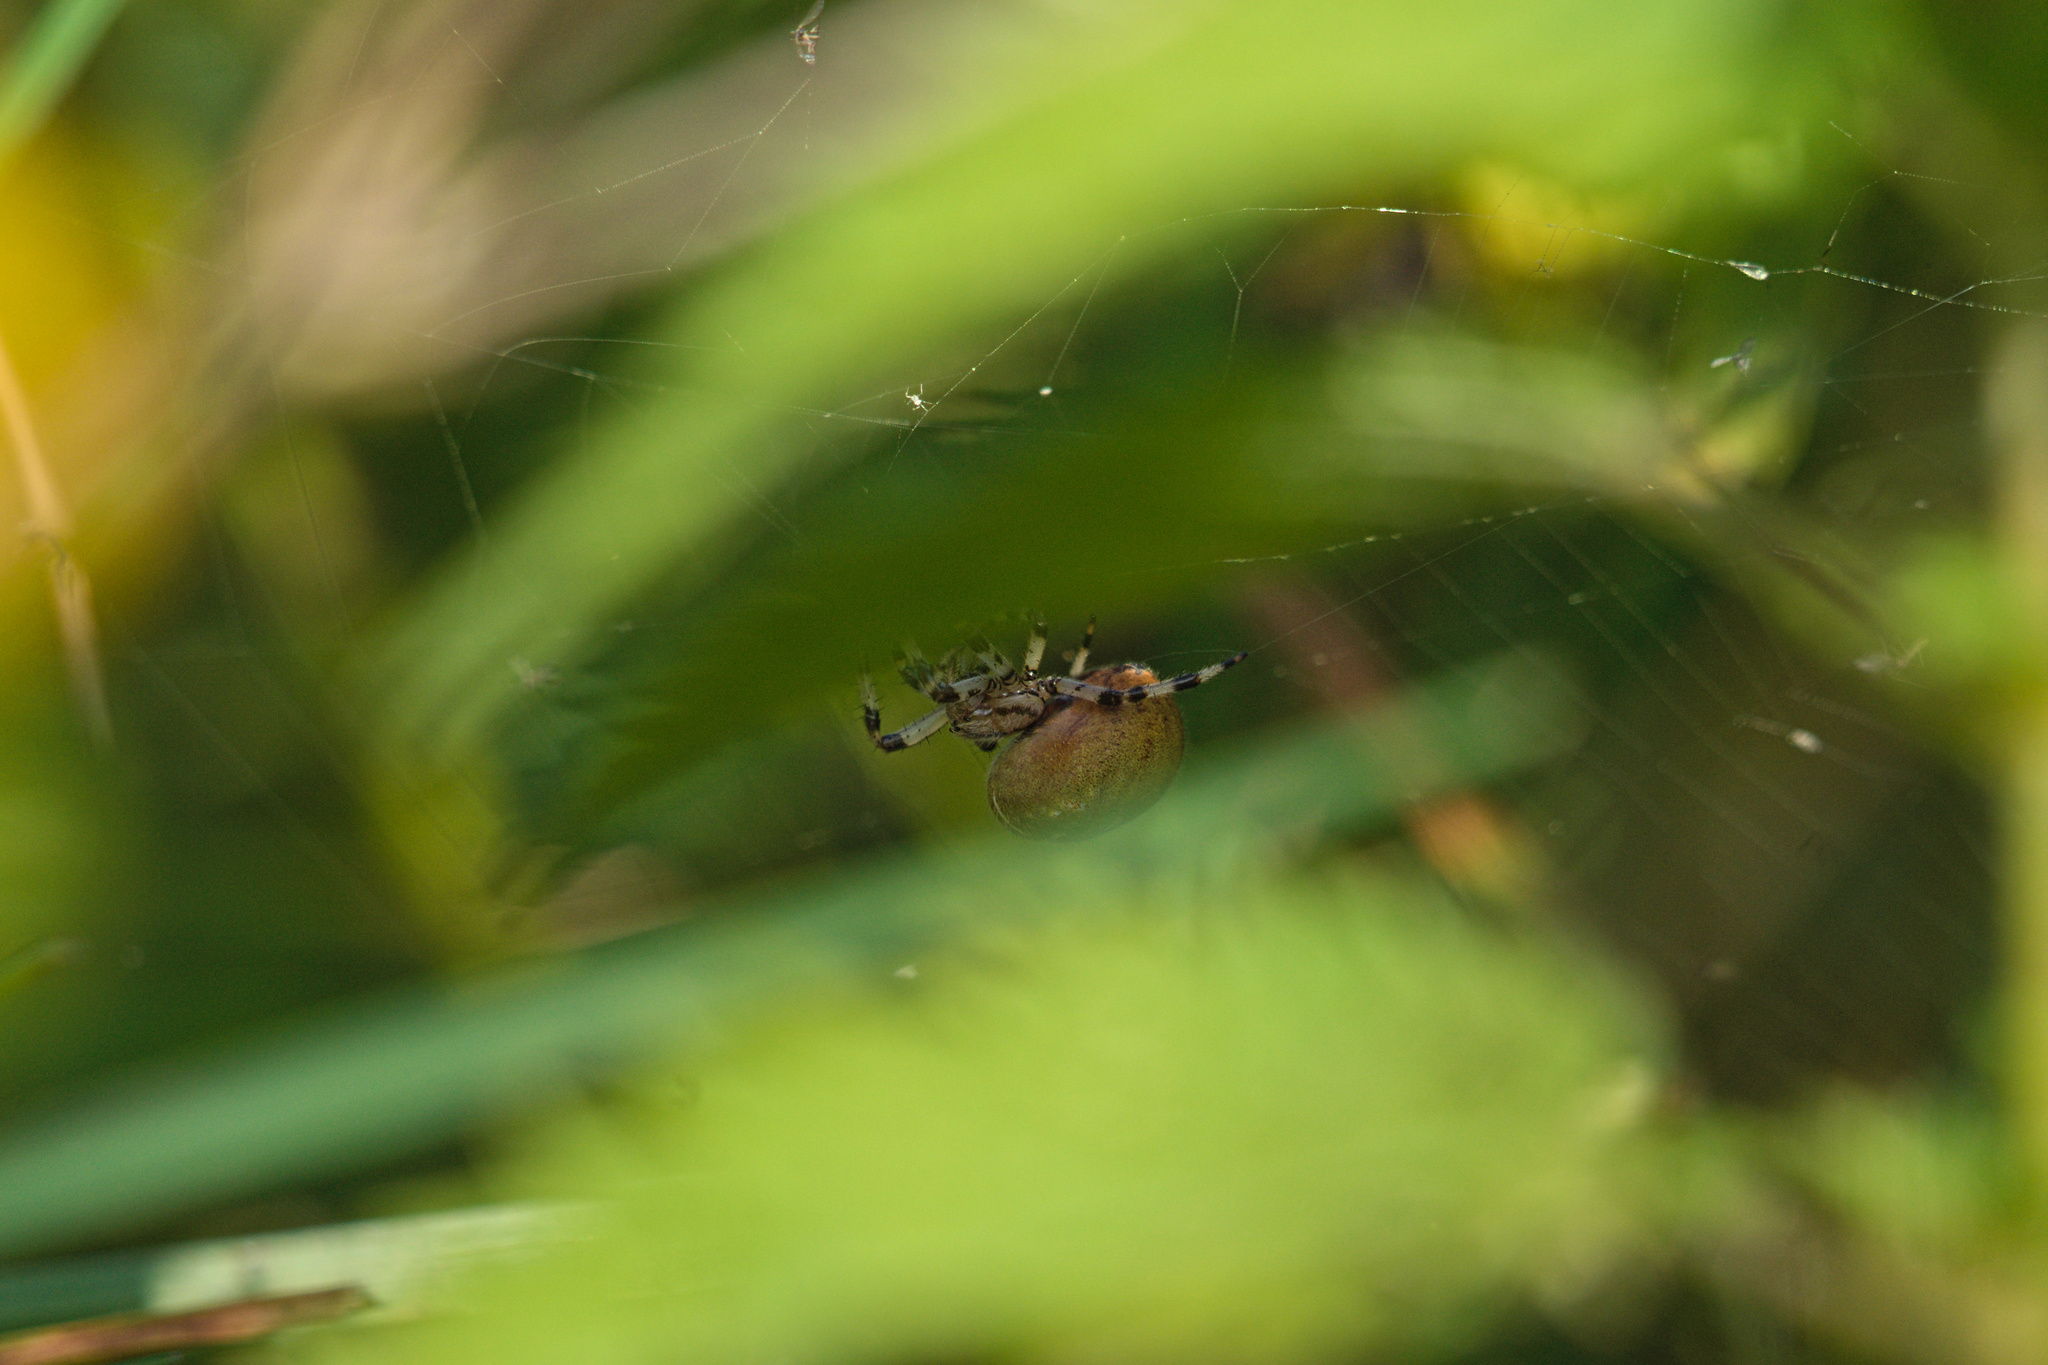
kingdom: Animalia
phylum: Arthropoda
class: Arachnida
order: Araneae
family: Araneidae
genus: Araneus
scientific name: Araneus quadratus
